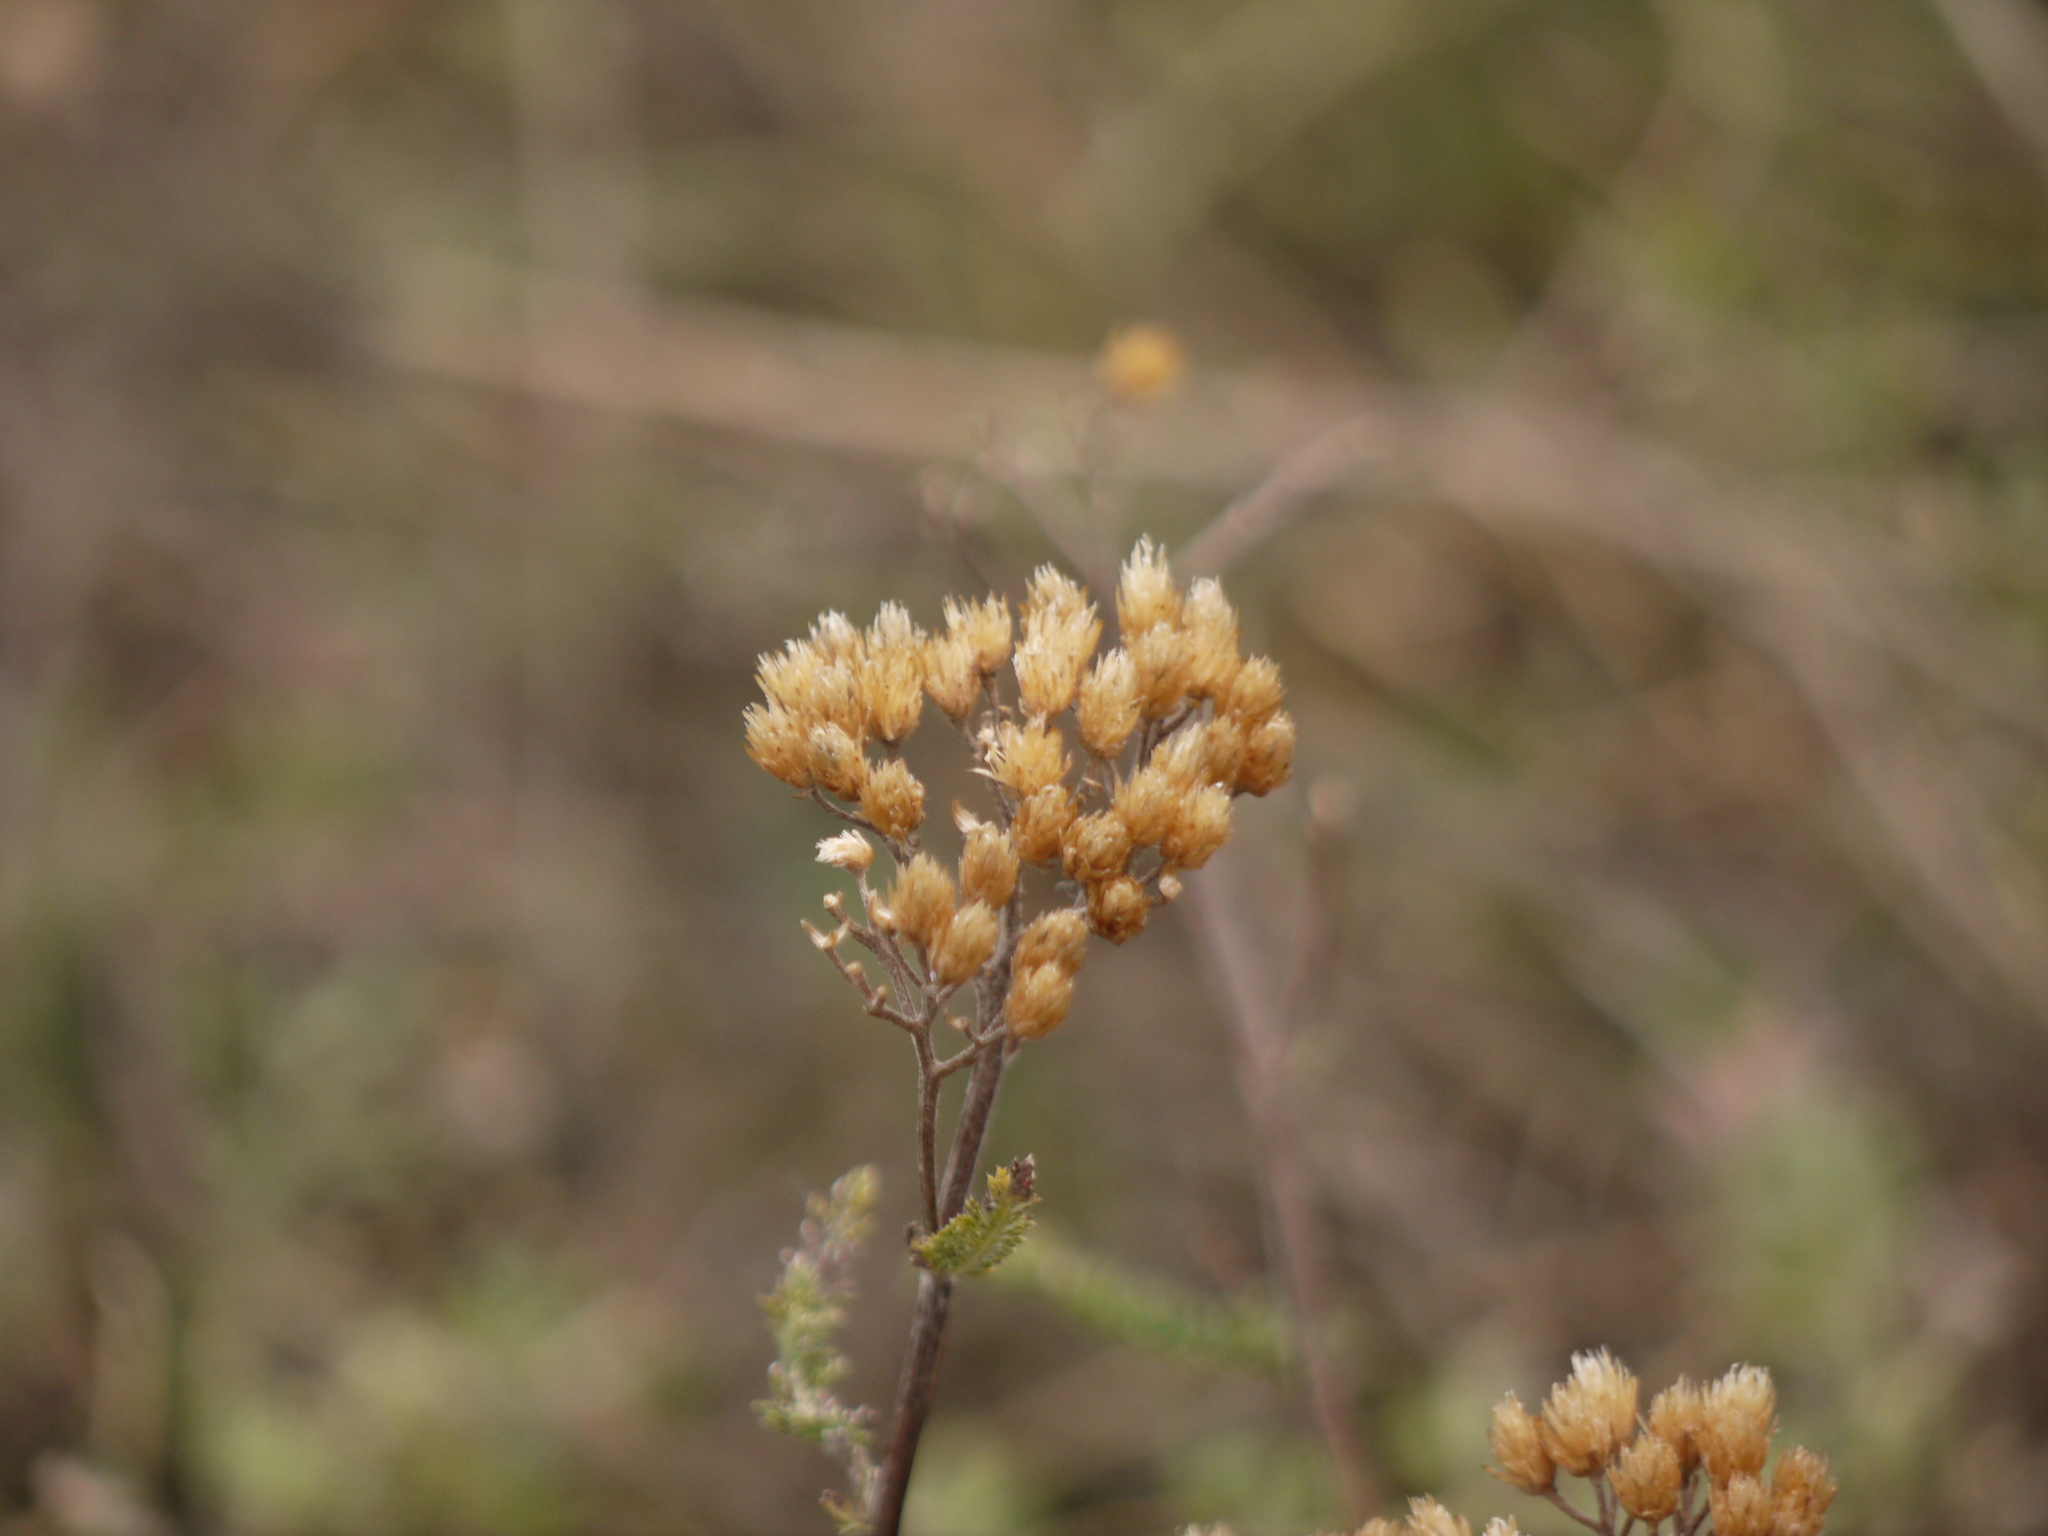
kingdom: Plantae
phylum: Tracheophyta
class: Magnoliopsida
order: Asterales
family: Asteraceae
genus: Achillea
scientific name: Achillea millefolium
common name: Yarrow
